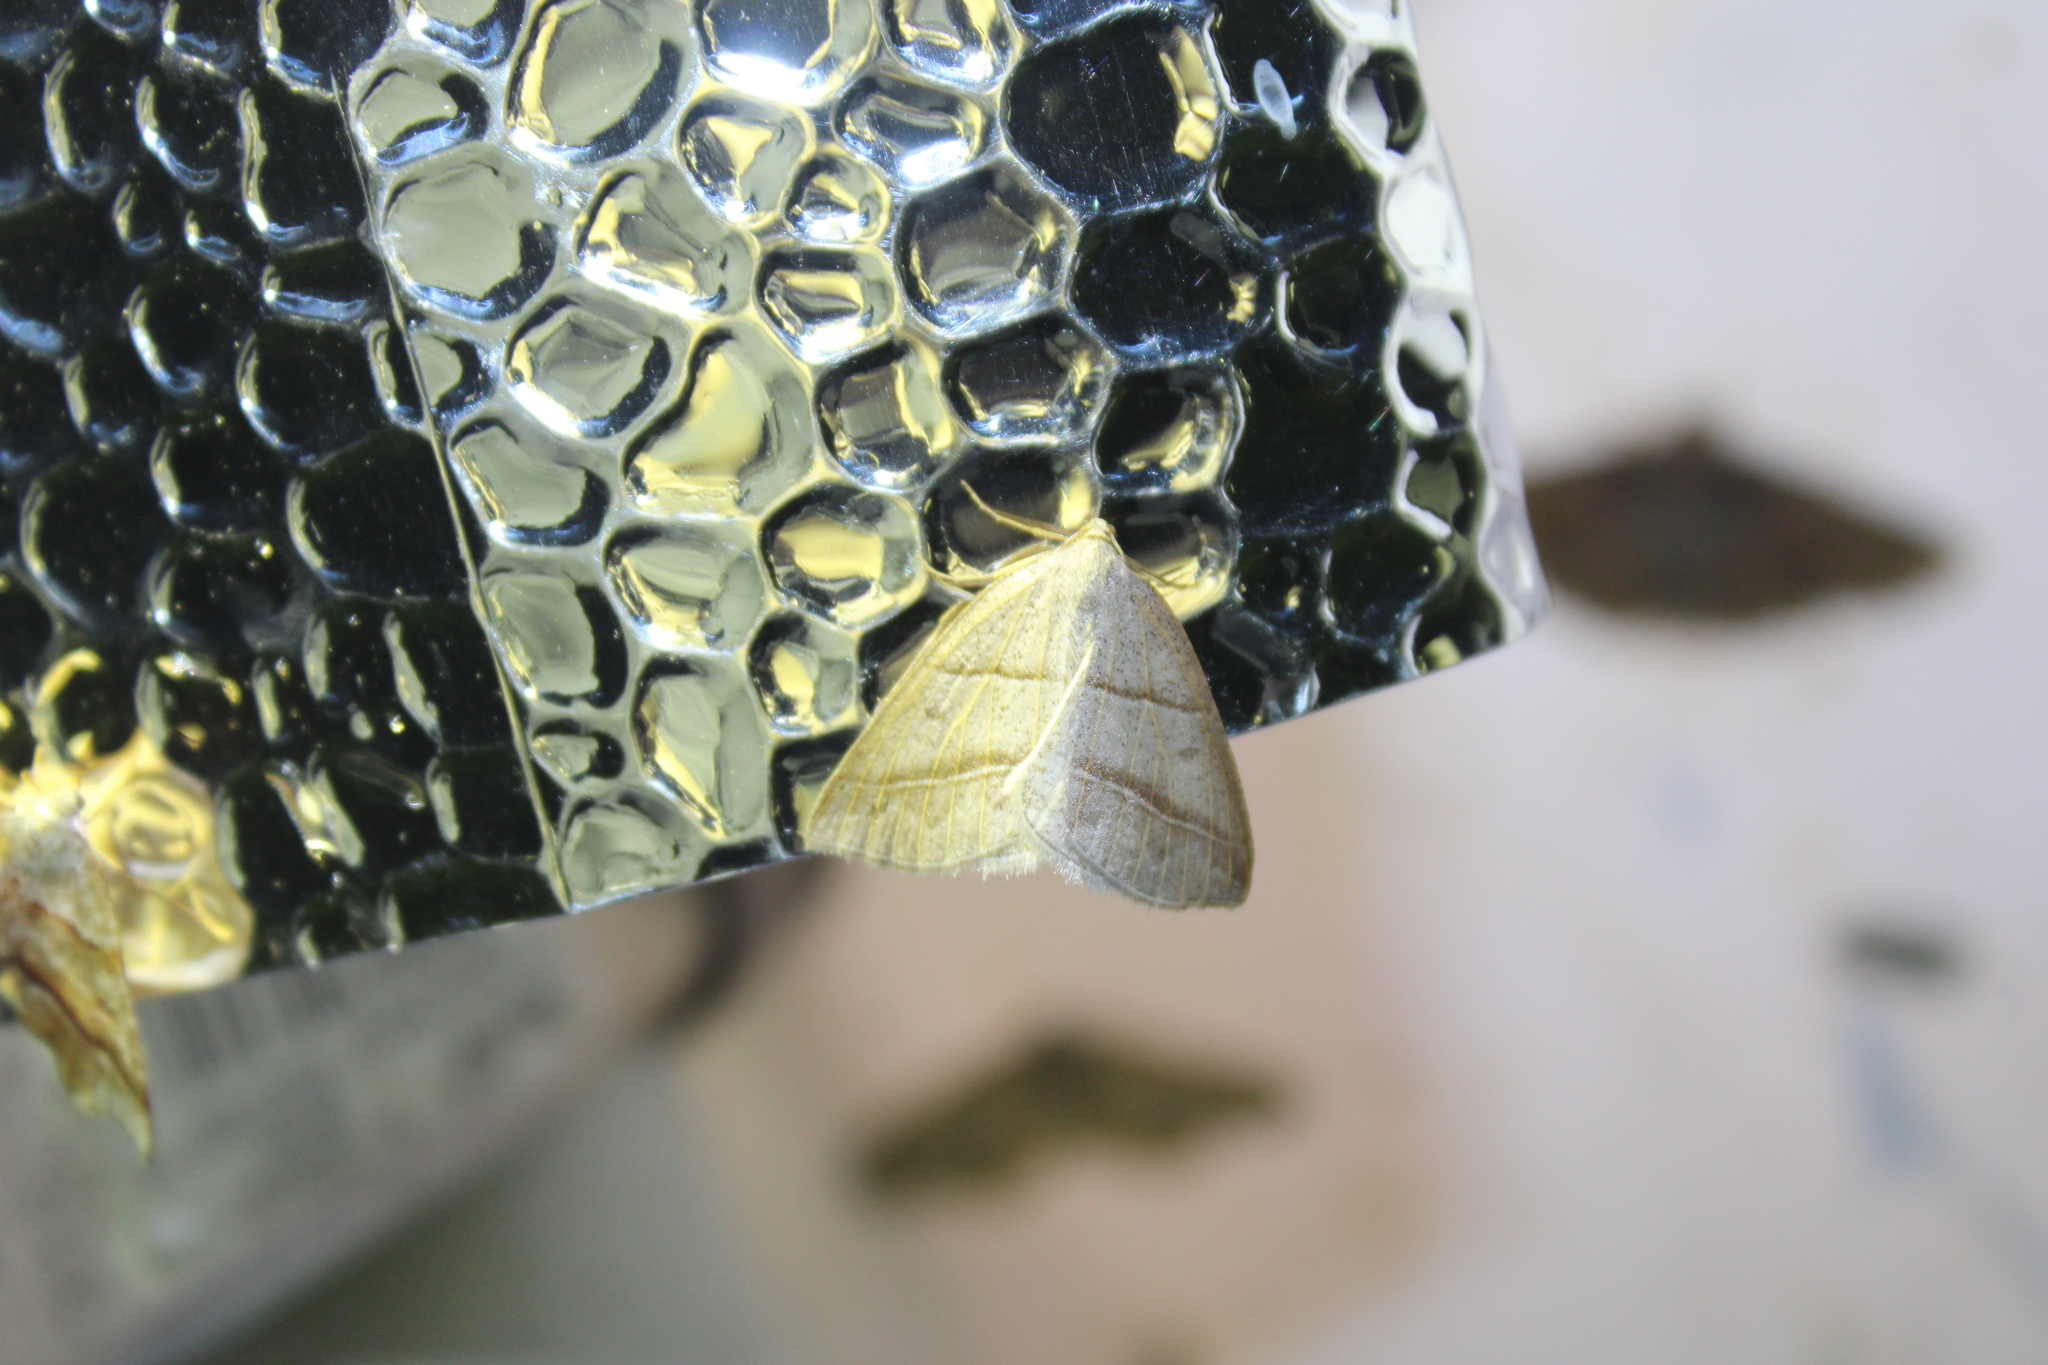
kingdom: Animalia
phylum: Arthropoda
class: Insecta
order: Lepidoptera
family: Pterophoridae
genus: Pterophorus
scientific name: Pterophorus Petrophora subaequaria
